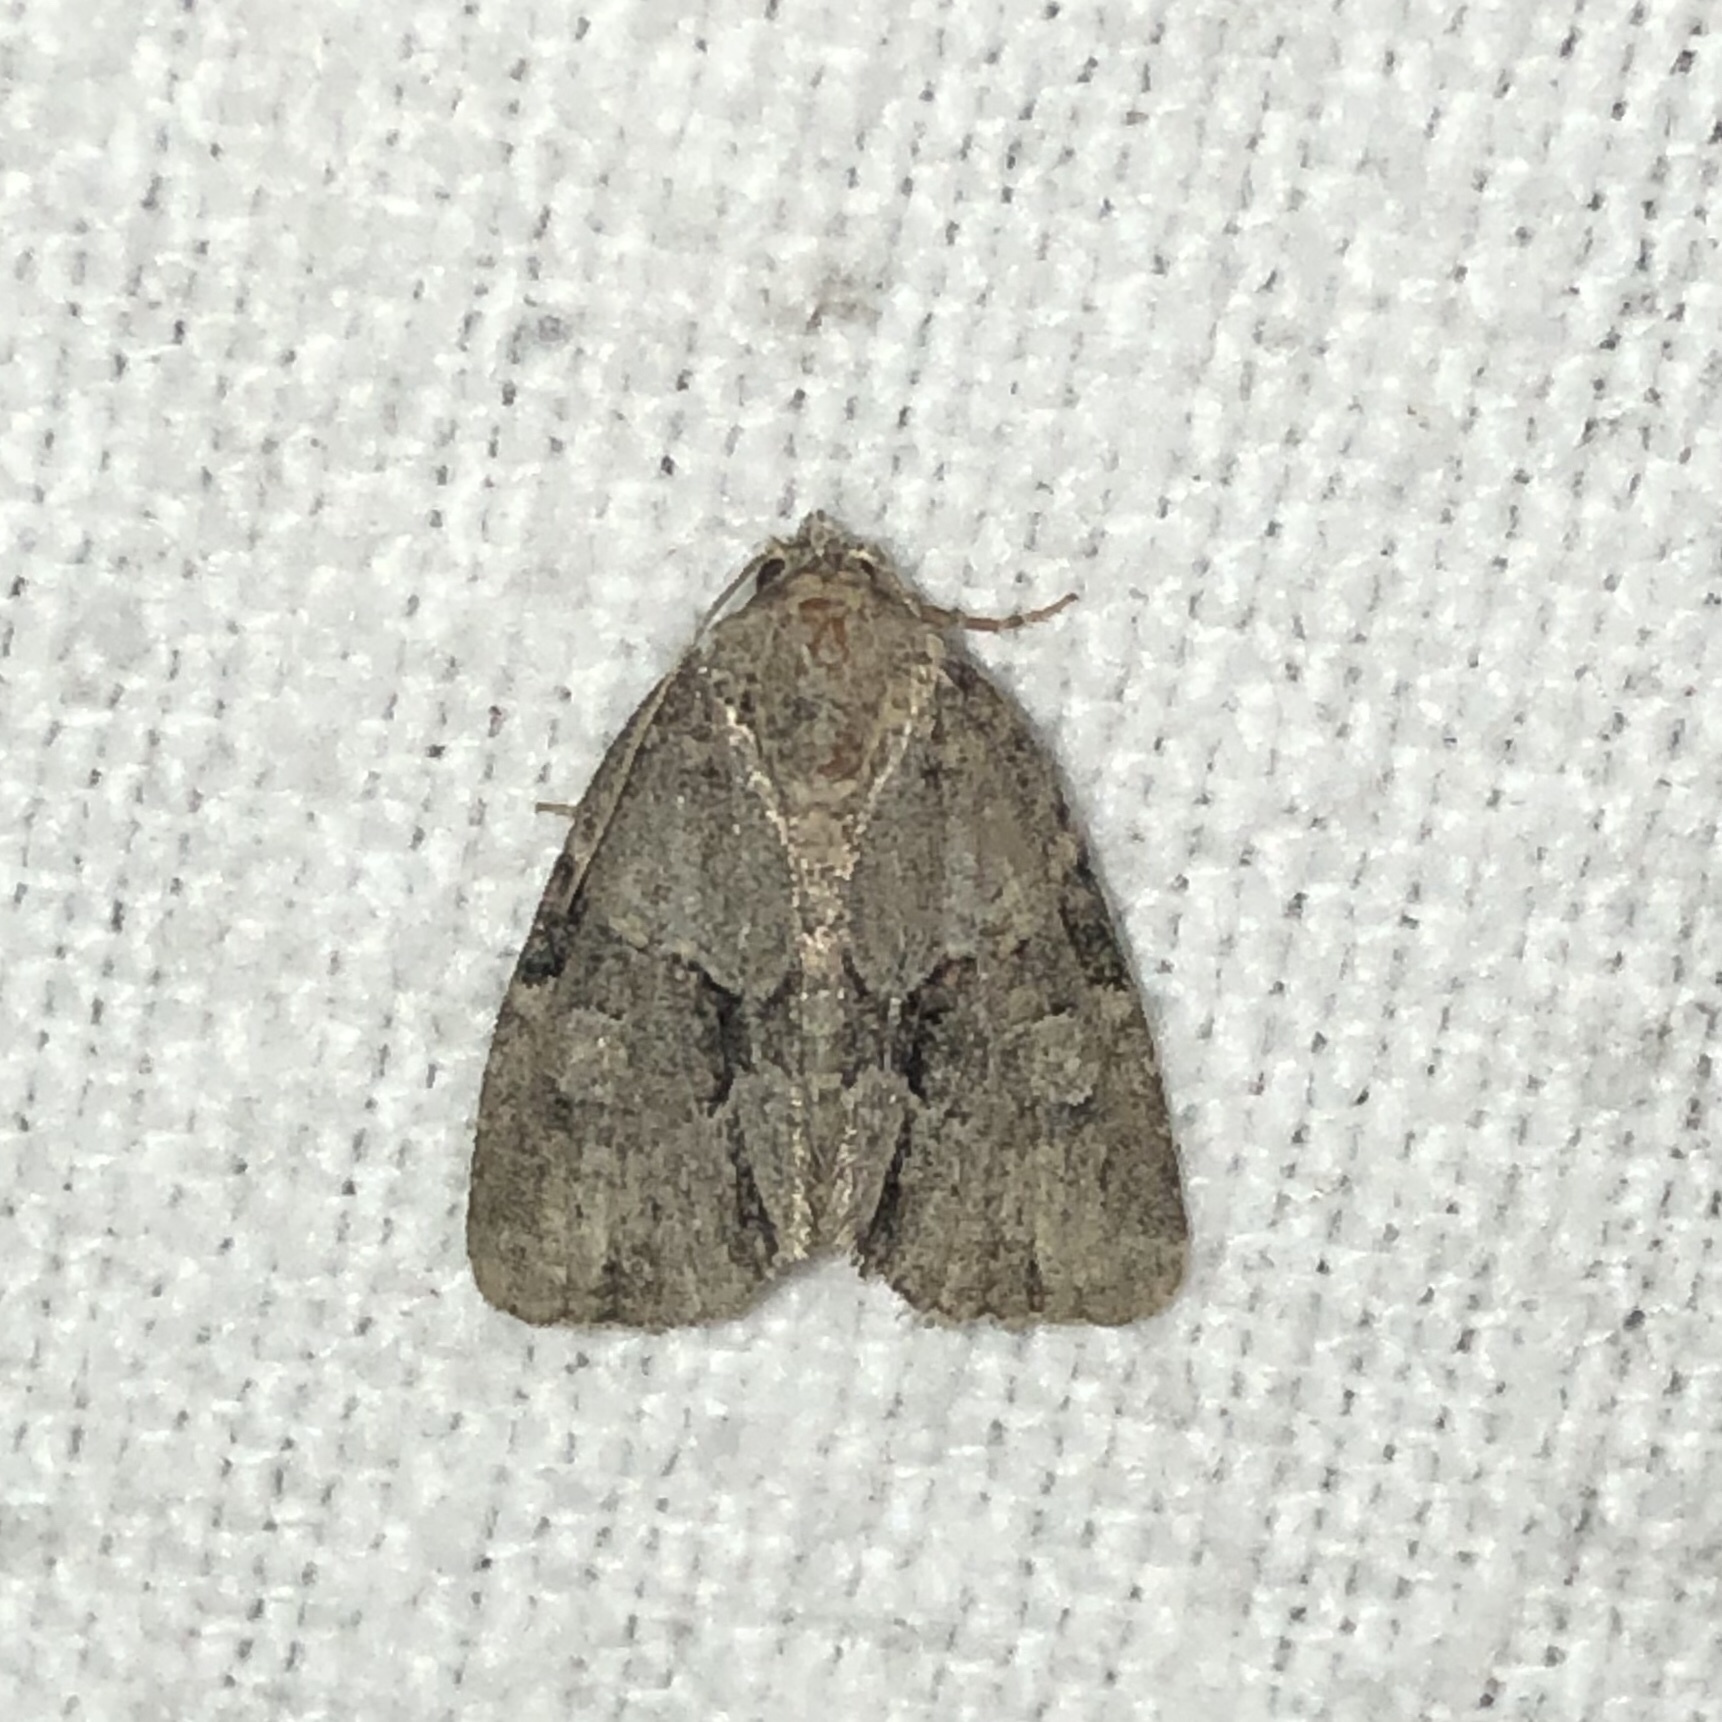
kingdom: Animalia
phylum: Arthropoda
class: Insecta
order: Lepidoptera
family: Noctuidae
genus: Neoligia
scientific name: Neoligia exhausta
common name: Exhausted brocade
